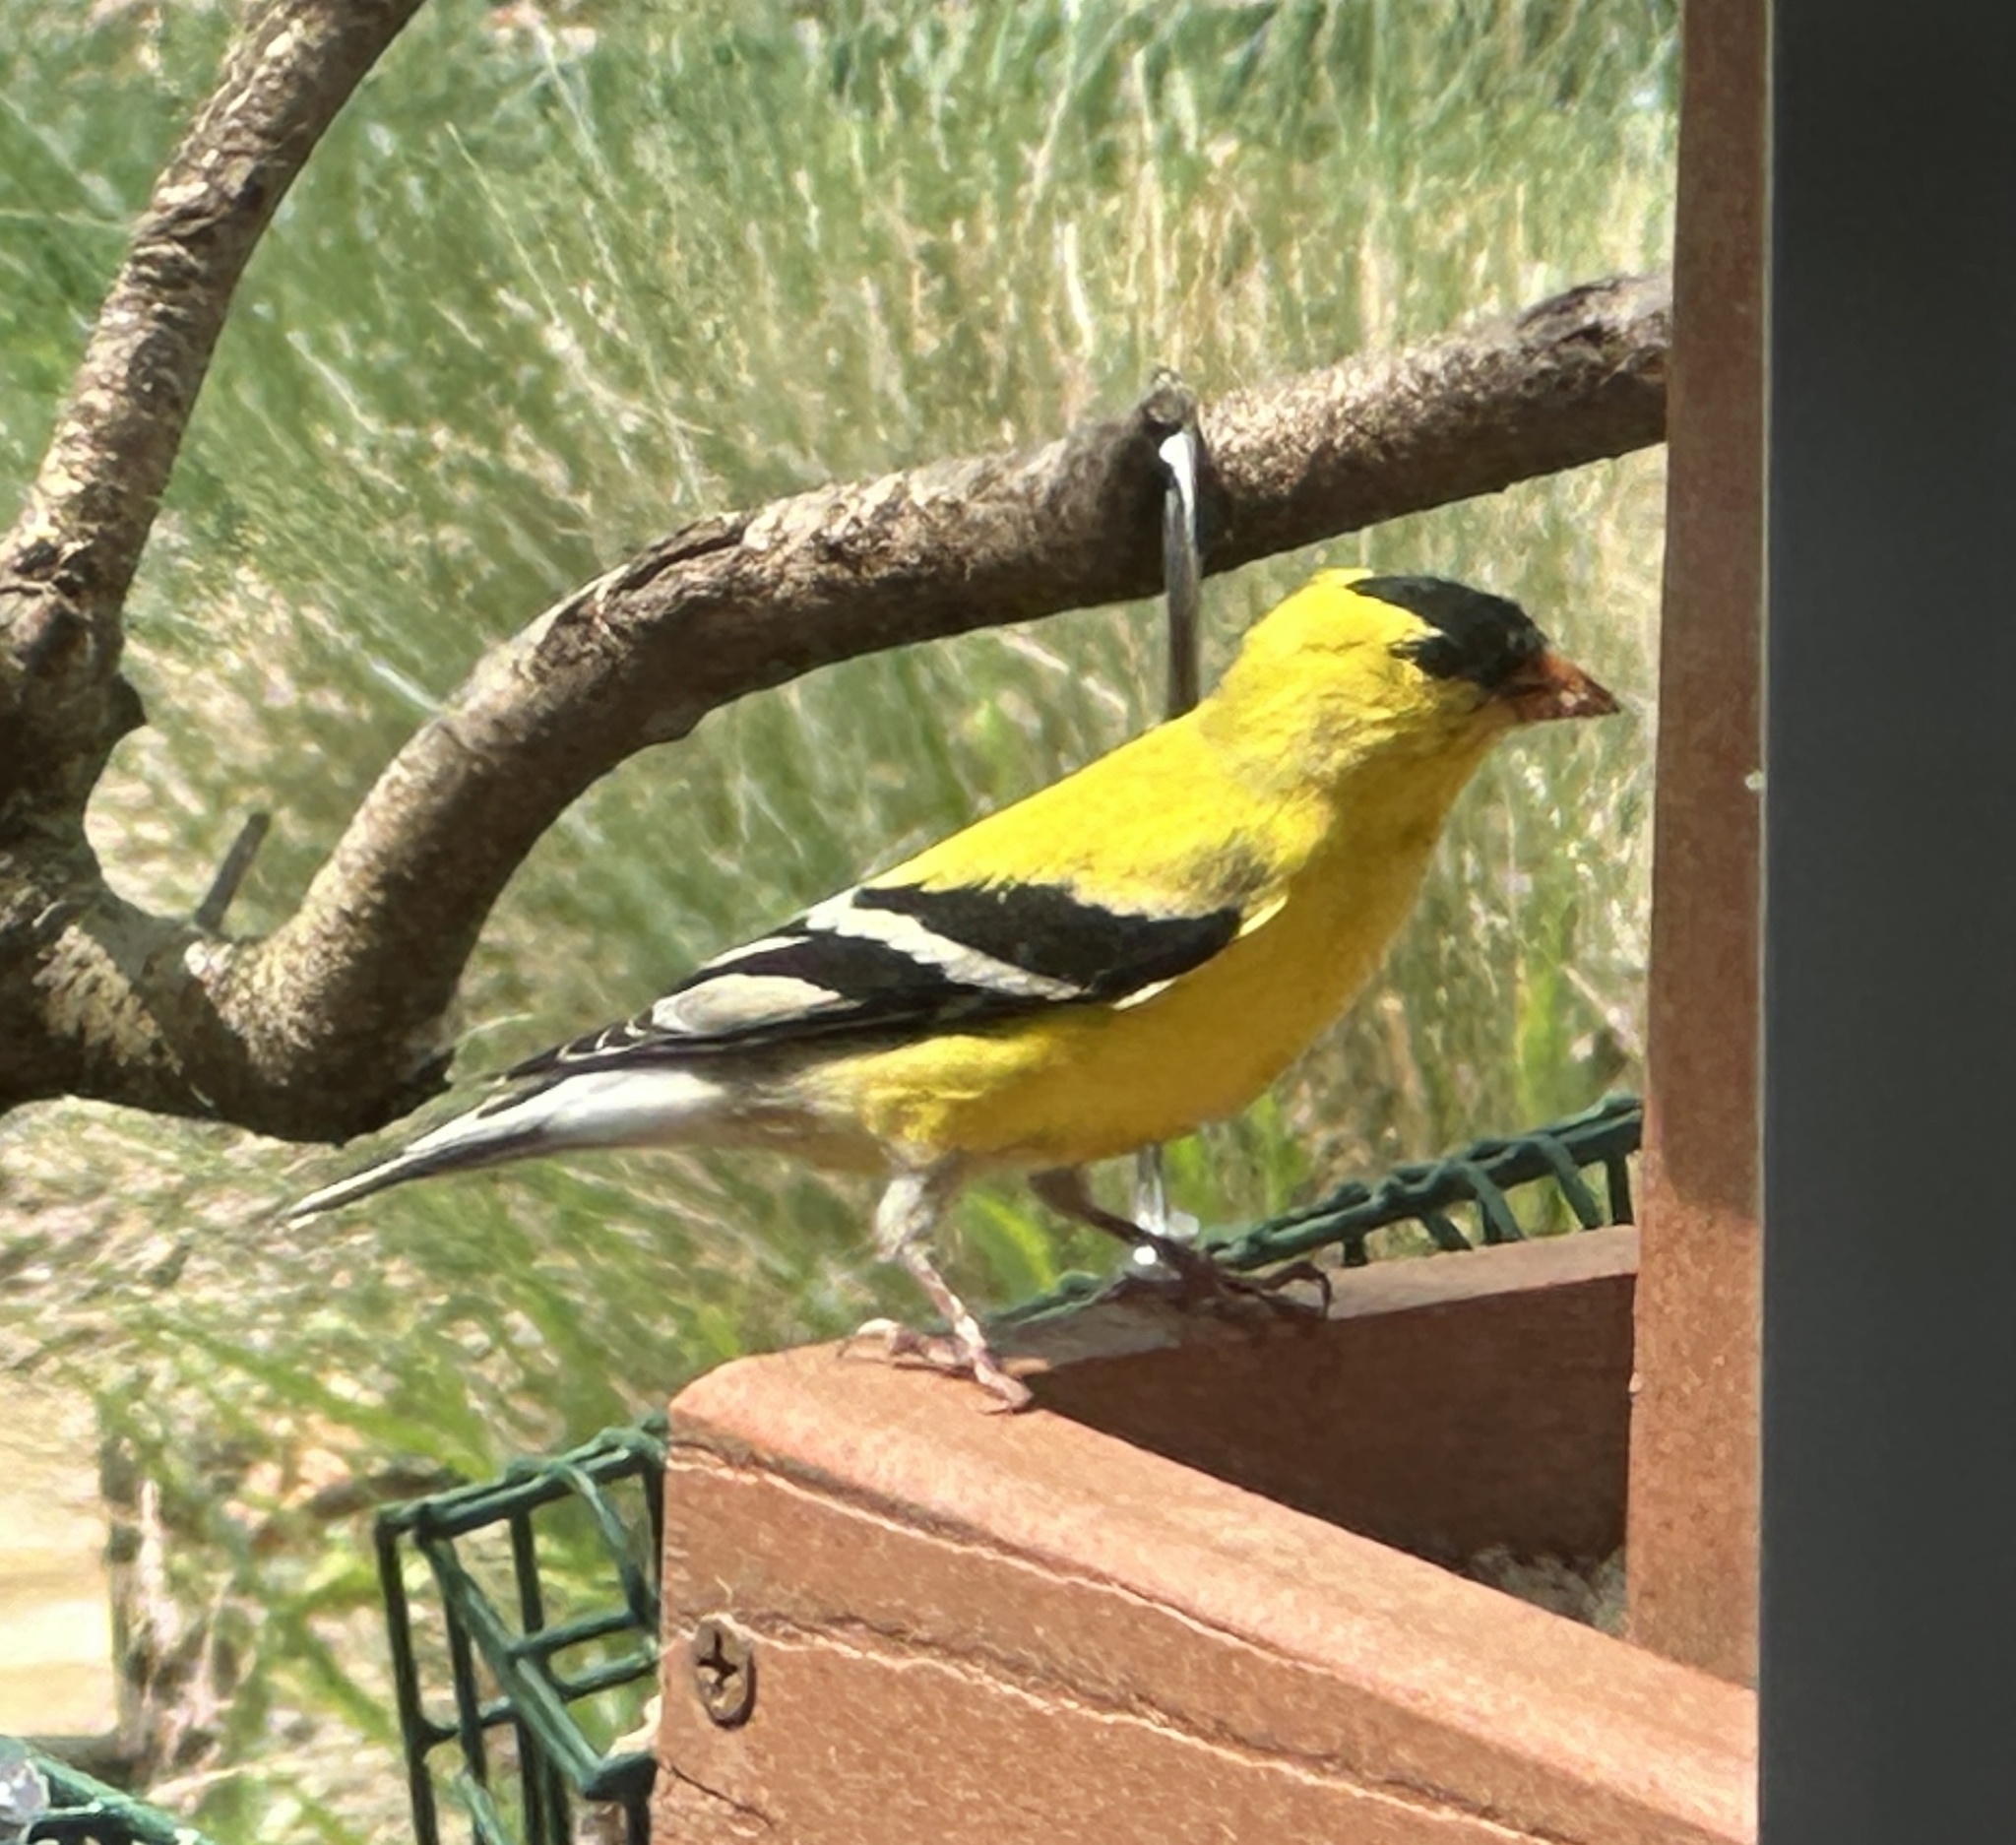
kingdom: Animalia
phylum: Chordata
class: Aves
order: Passeriformes
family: Fringillidae
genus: Spinus
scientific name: Spinus tristis
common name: American goldfinch
